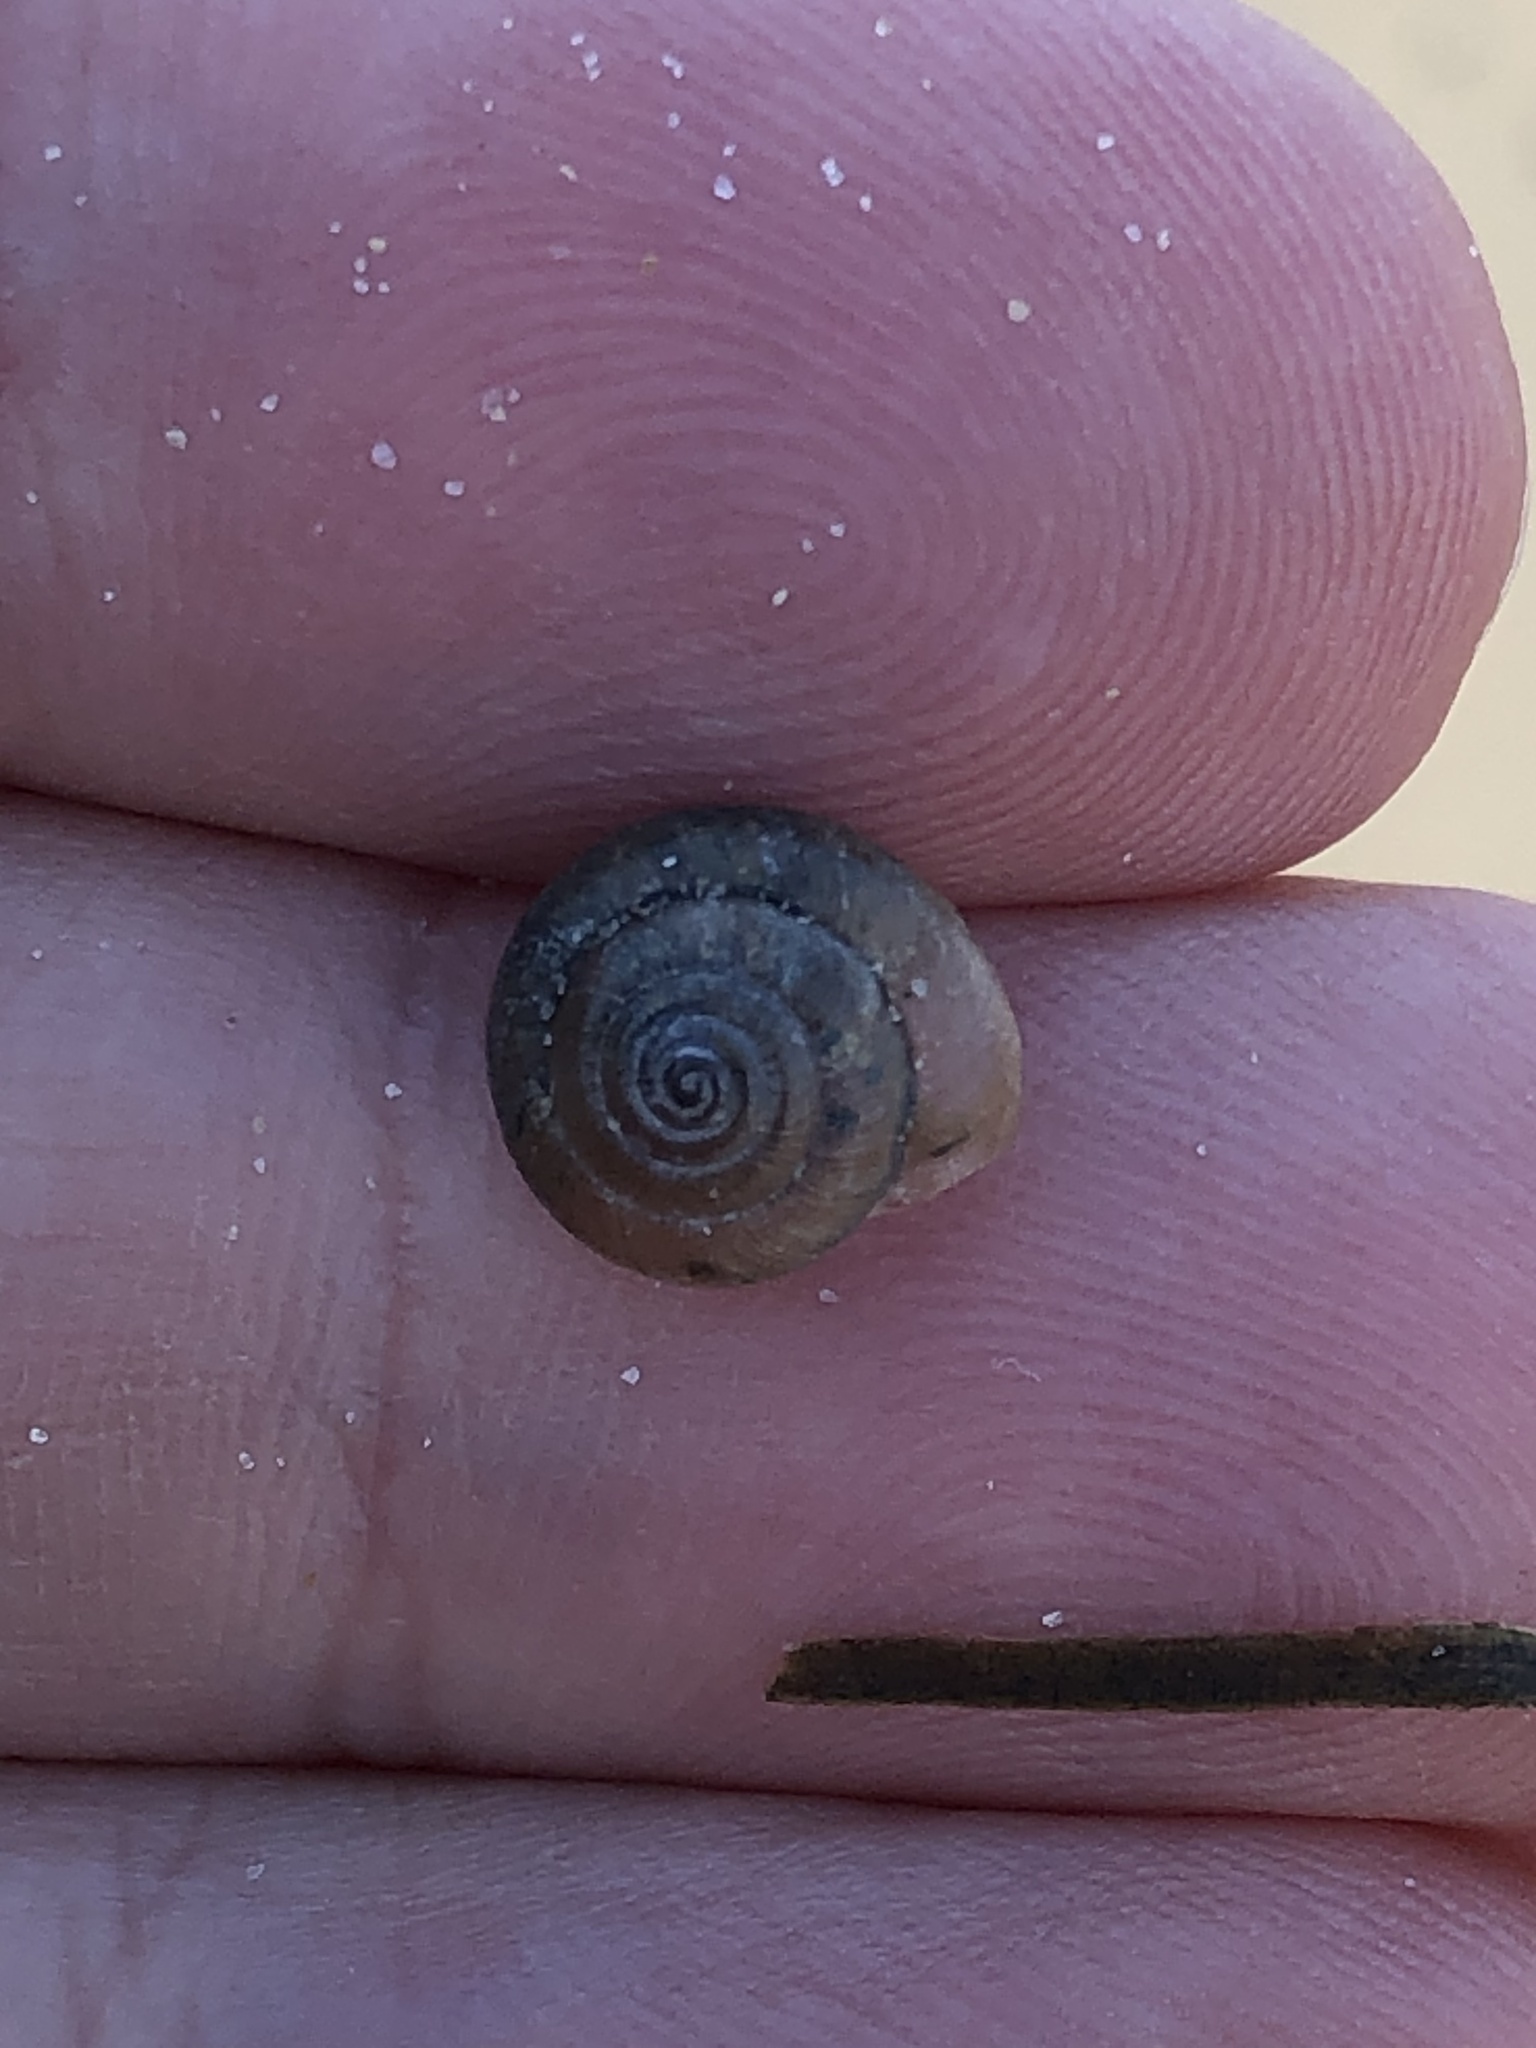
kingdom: Animalia
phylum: Mollusca
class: Gastropoda
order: Stylommatophora
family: Hygromiidae
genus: Trochulus
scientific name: Trochulus hispidus
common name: Hairy snail
